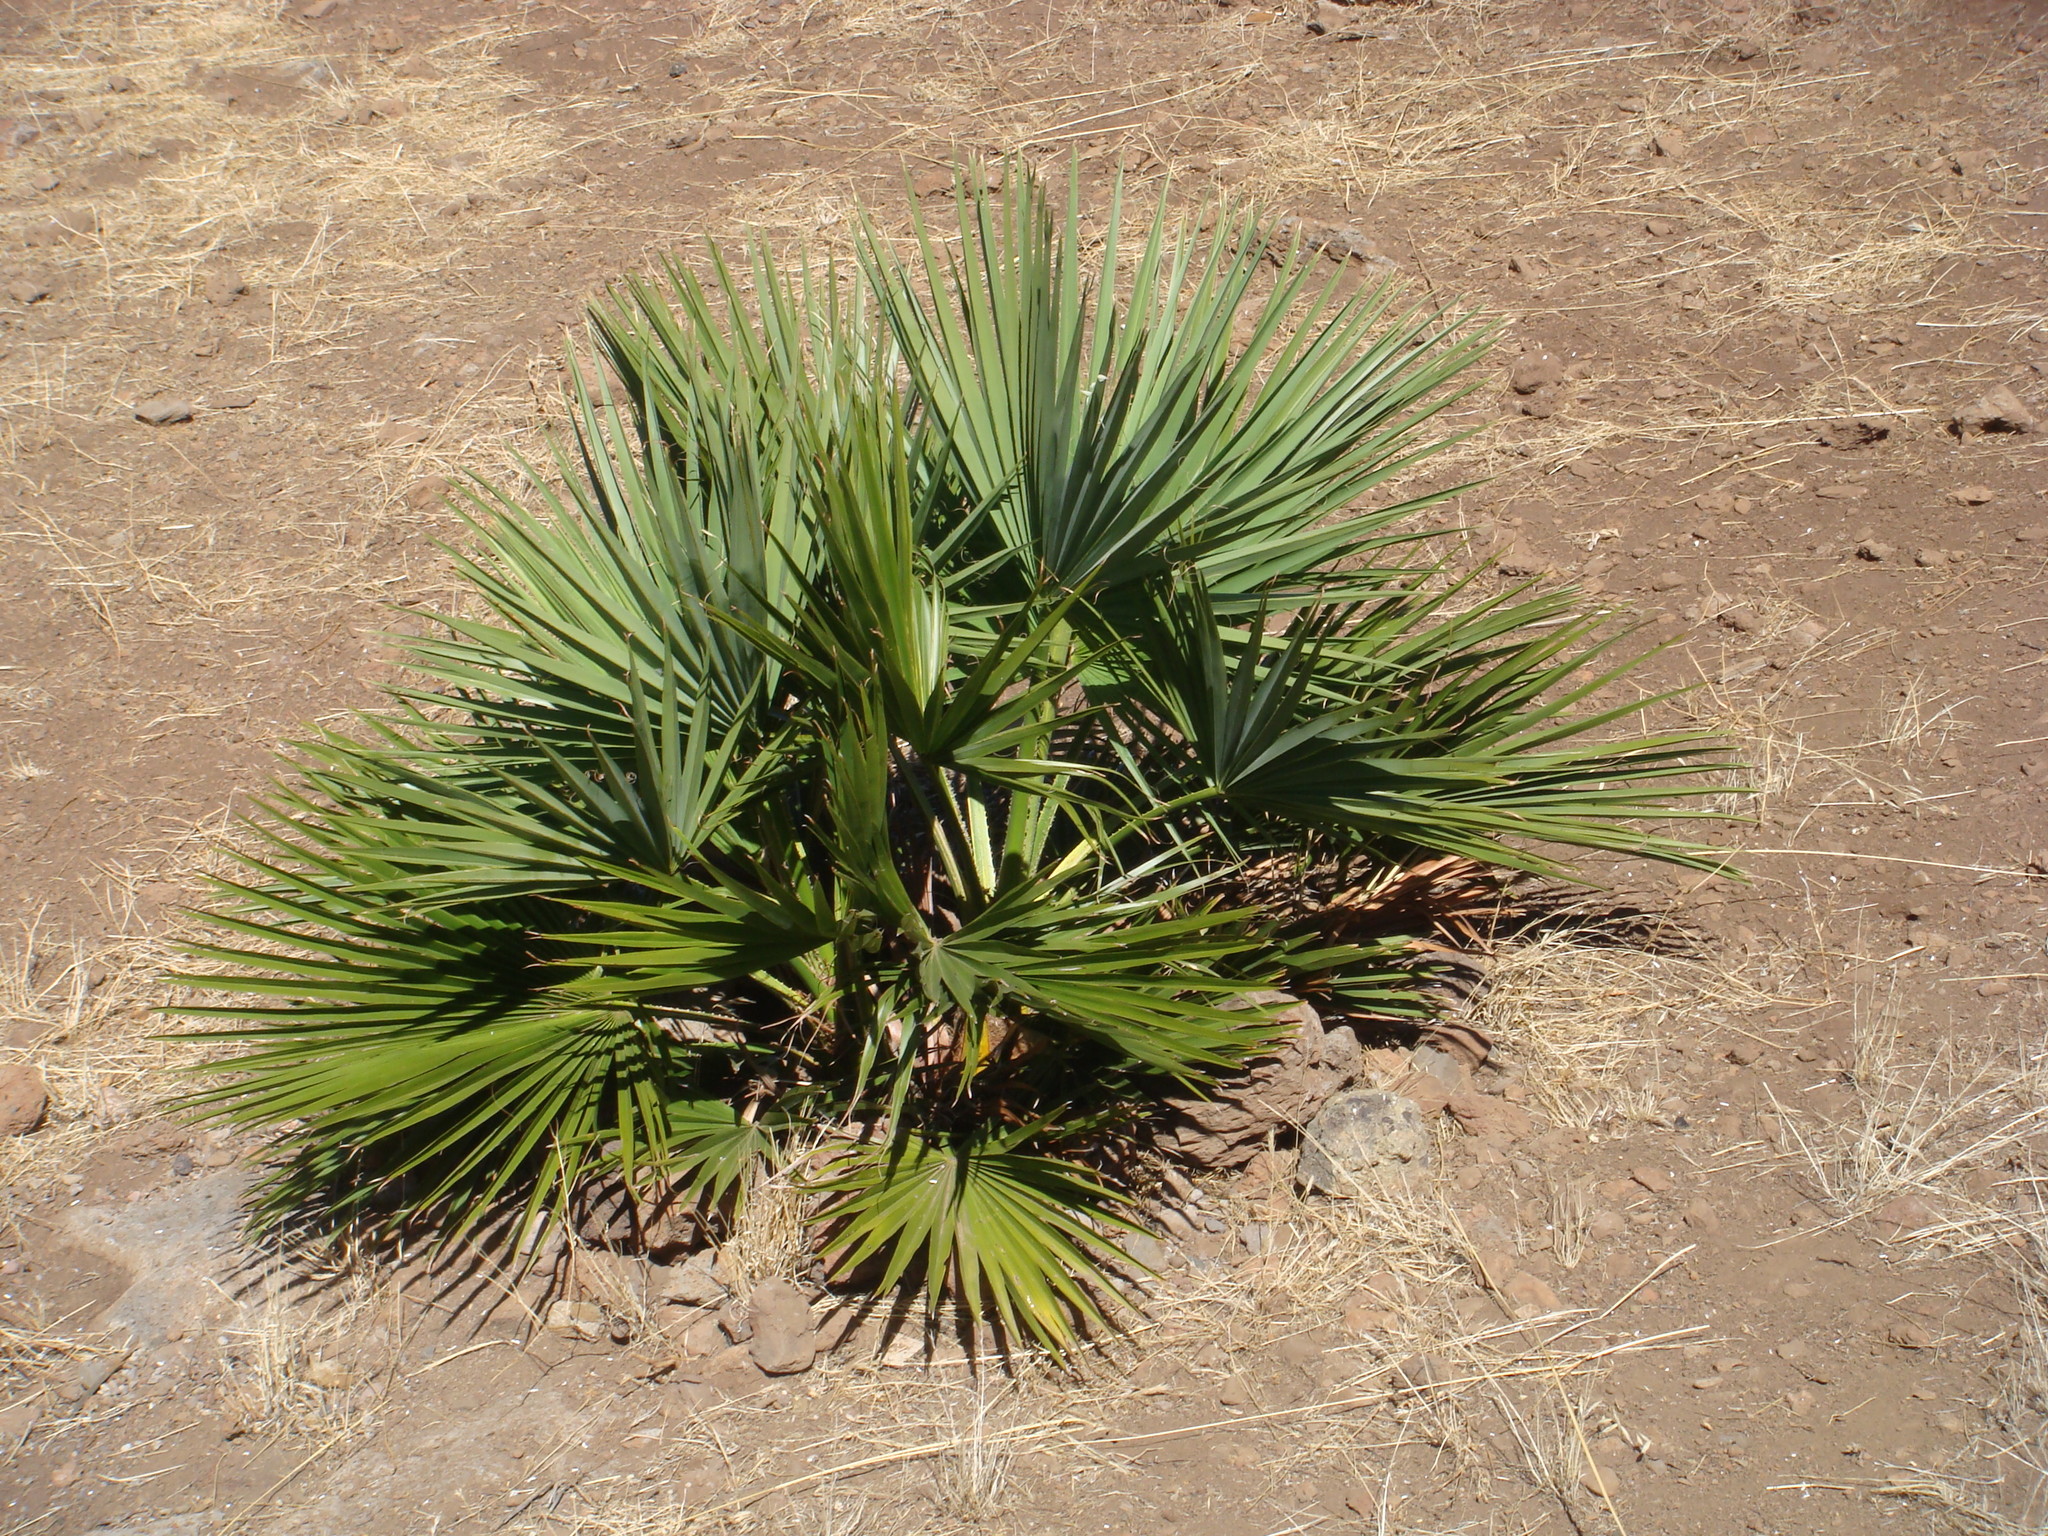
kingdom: Plantae
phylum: Tracheophyta
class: Liliopsida
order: Arecales
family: Arecaceae
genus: Brahea
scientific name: Brahea edulis
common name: Guadalupe palm
